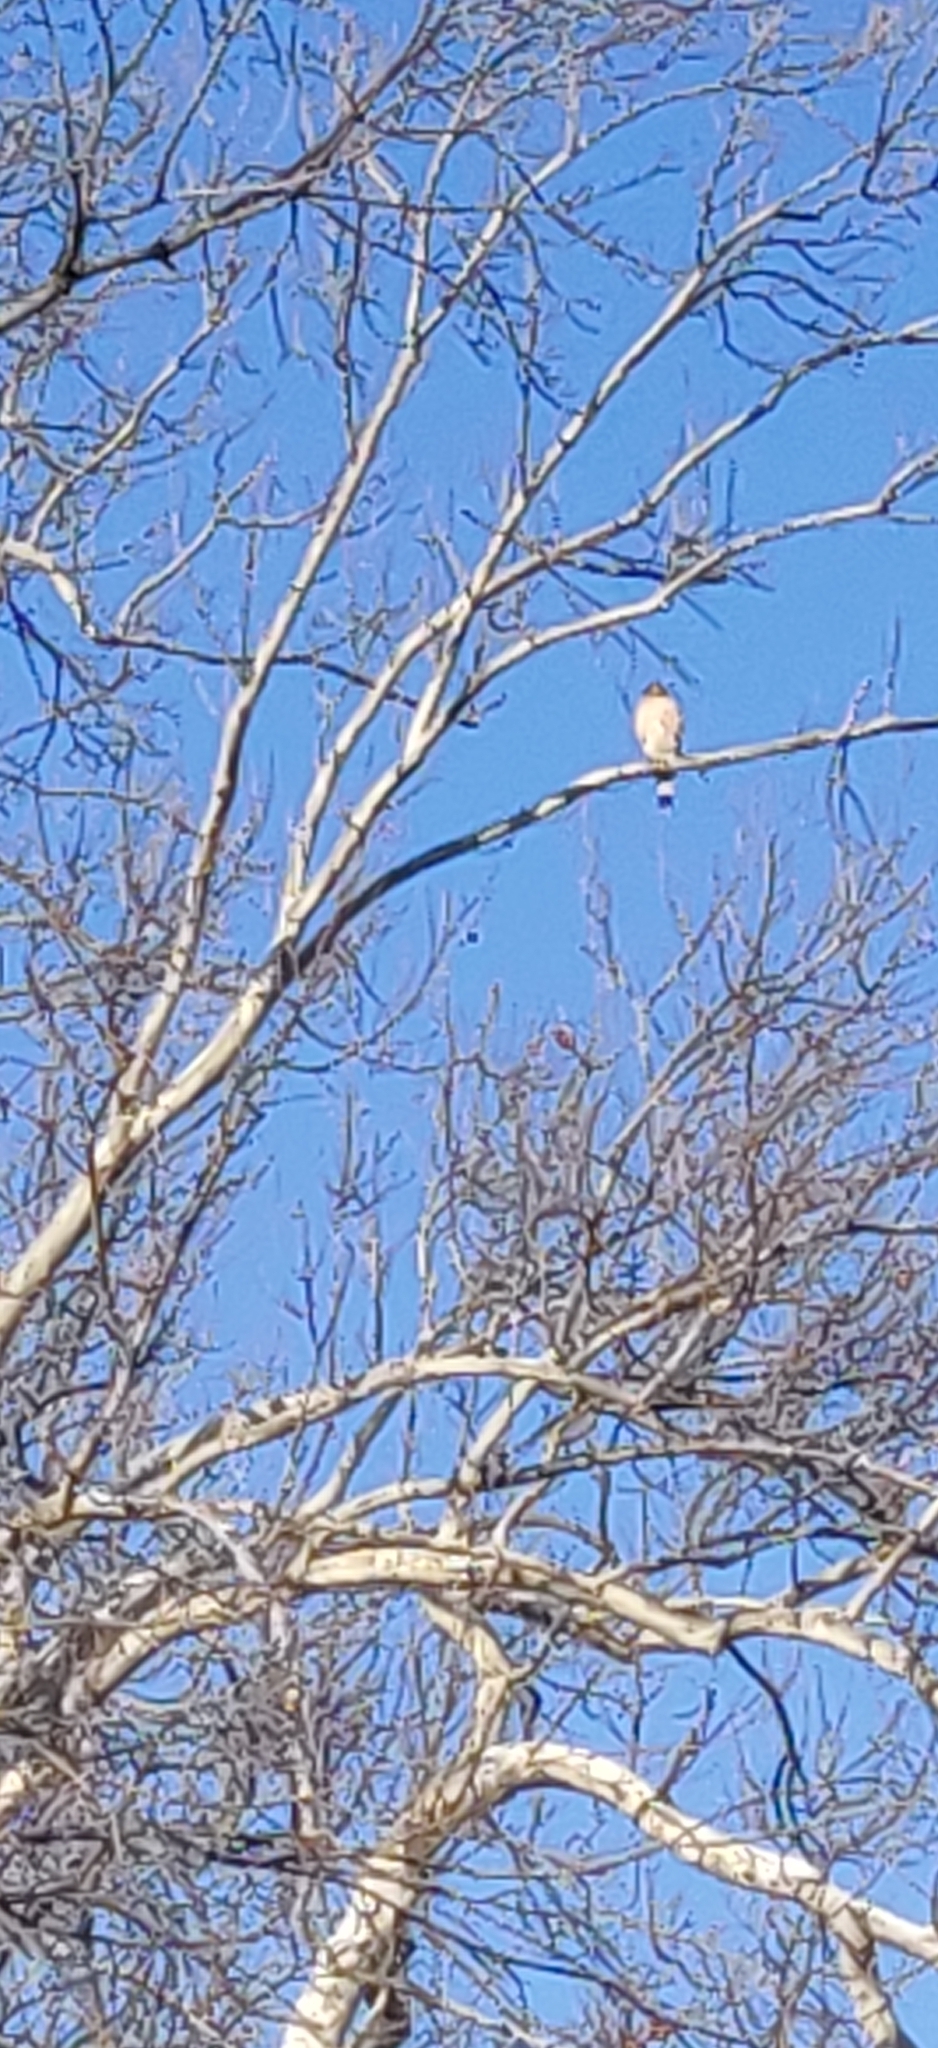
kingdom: Animalia
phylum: Chordata
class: Aves
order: Accipitriformes
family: Accipitridae
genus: Accipiter
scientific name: Accipiter cooperii
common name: Cooper's hawk
